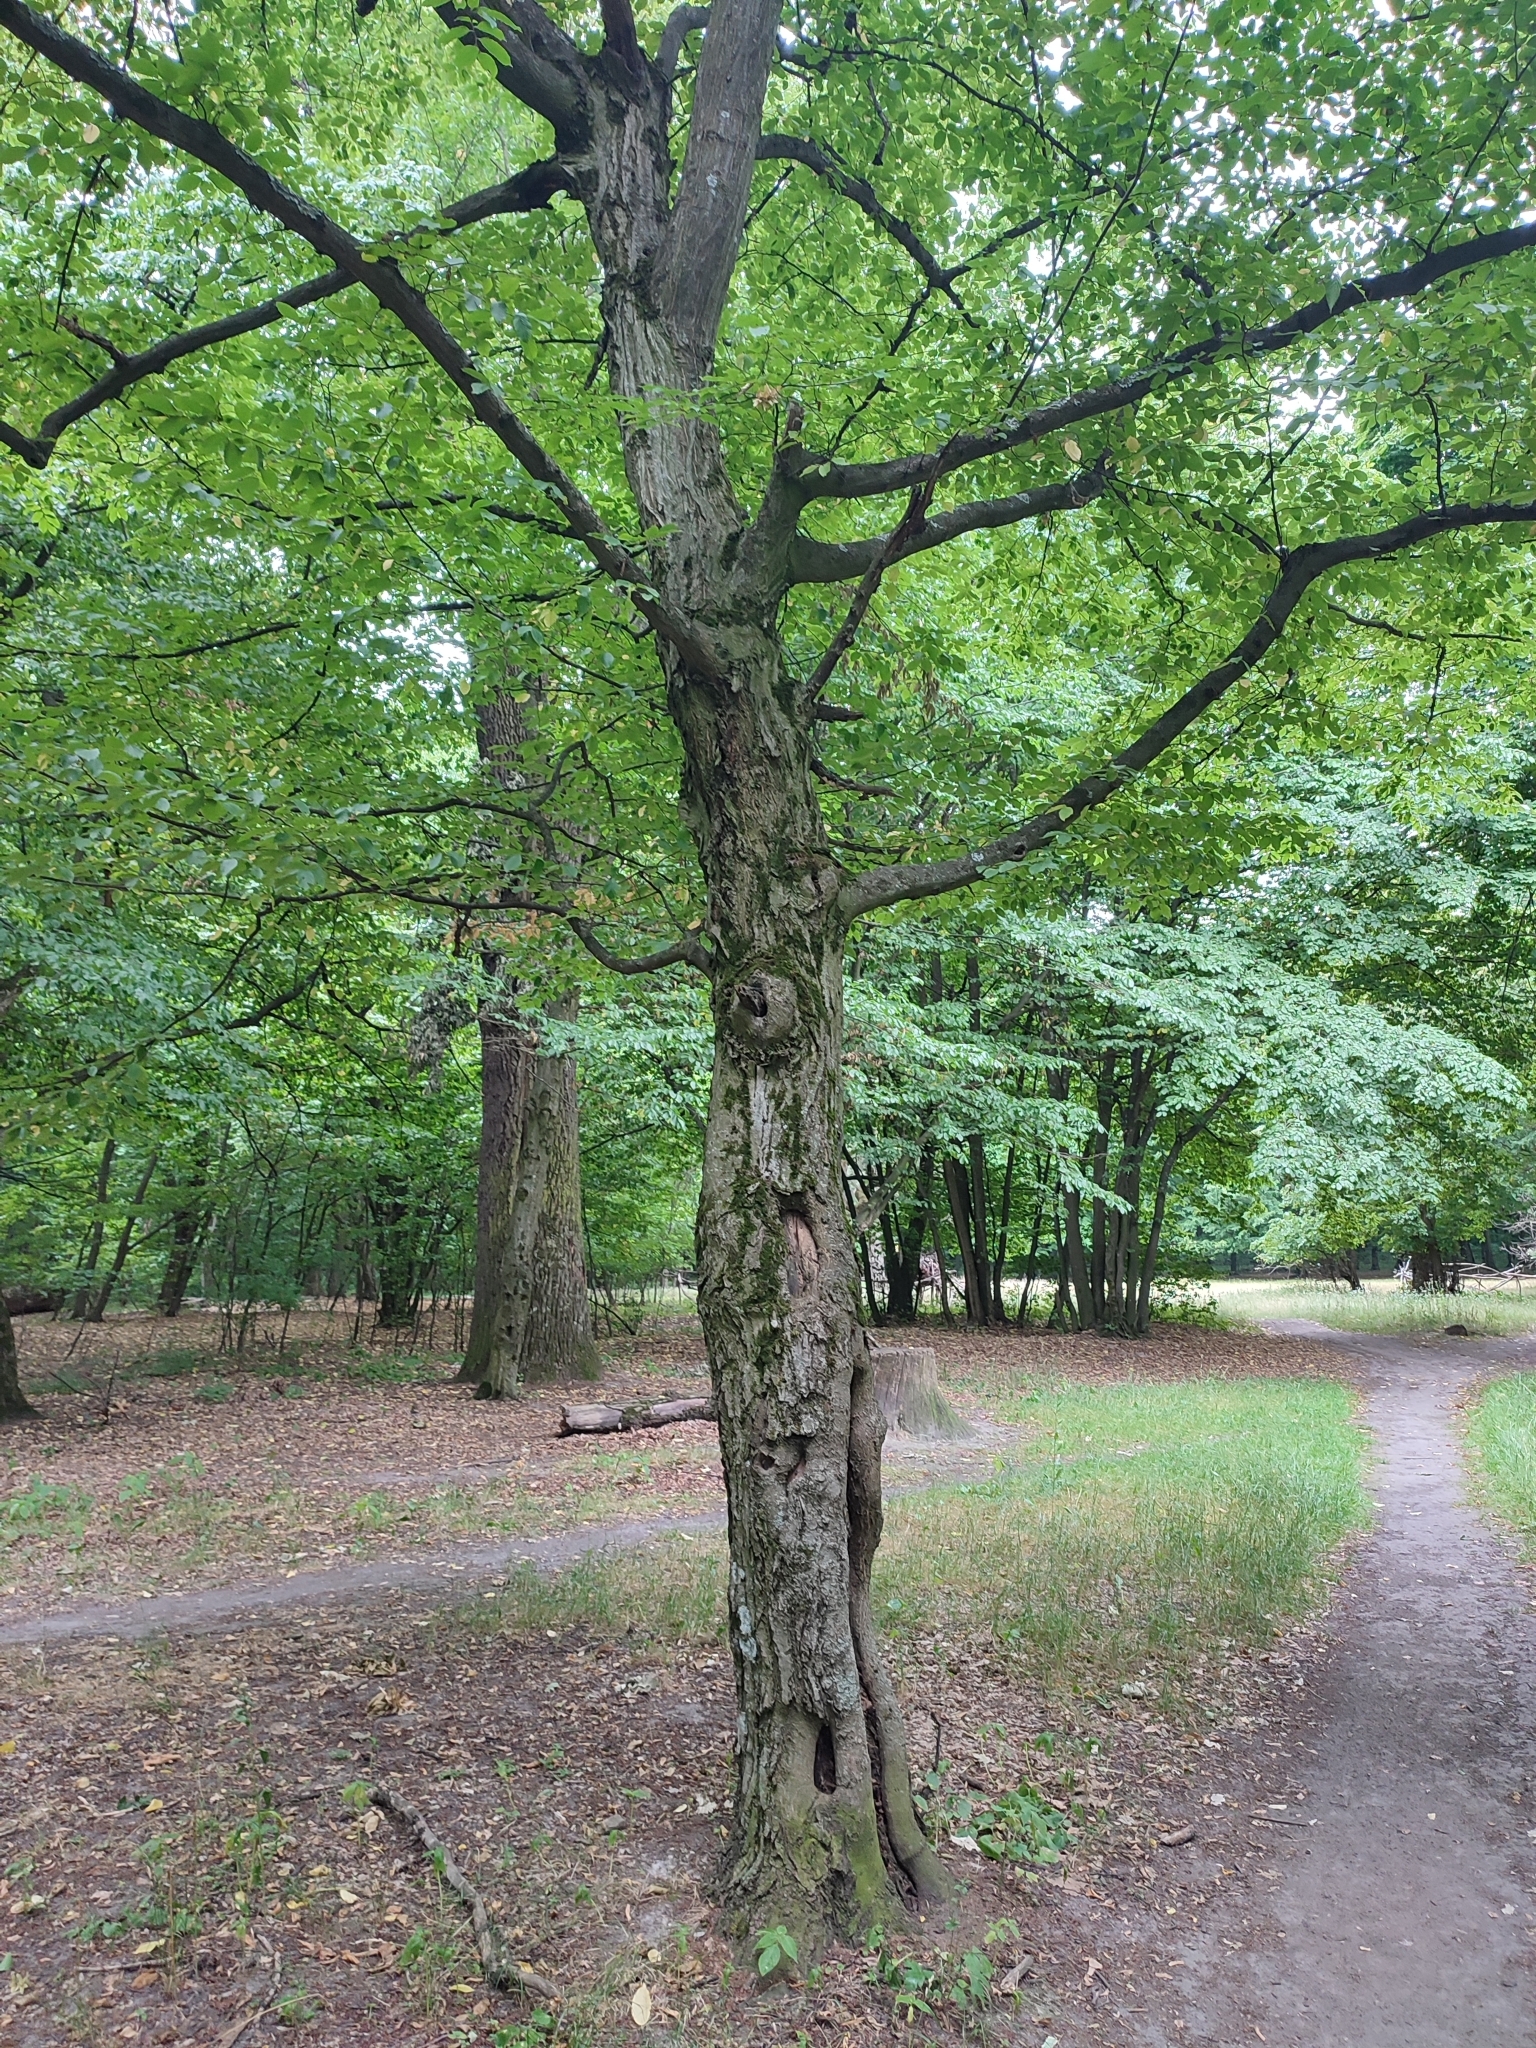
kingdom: Plantae
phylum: Tracheophyta
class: Magnoliopsida
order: Fagales
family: Betulaceae
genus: Carpinus
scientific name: Carpinus betulus
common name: Hornbeam
